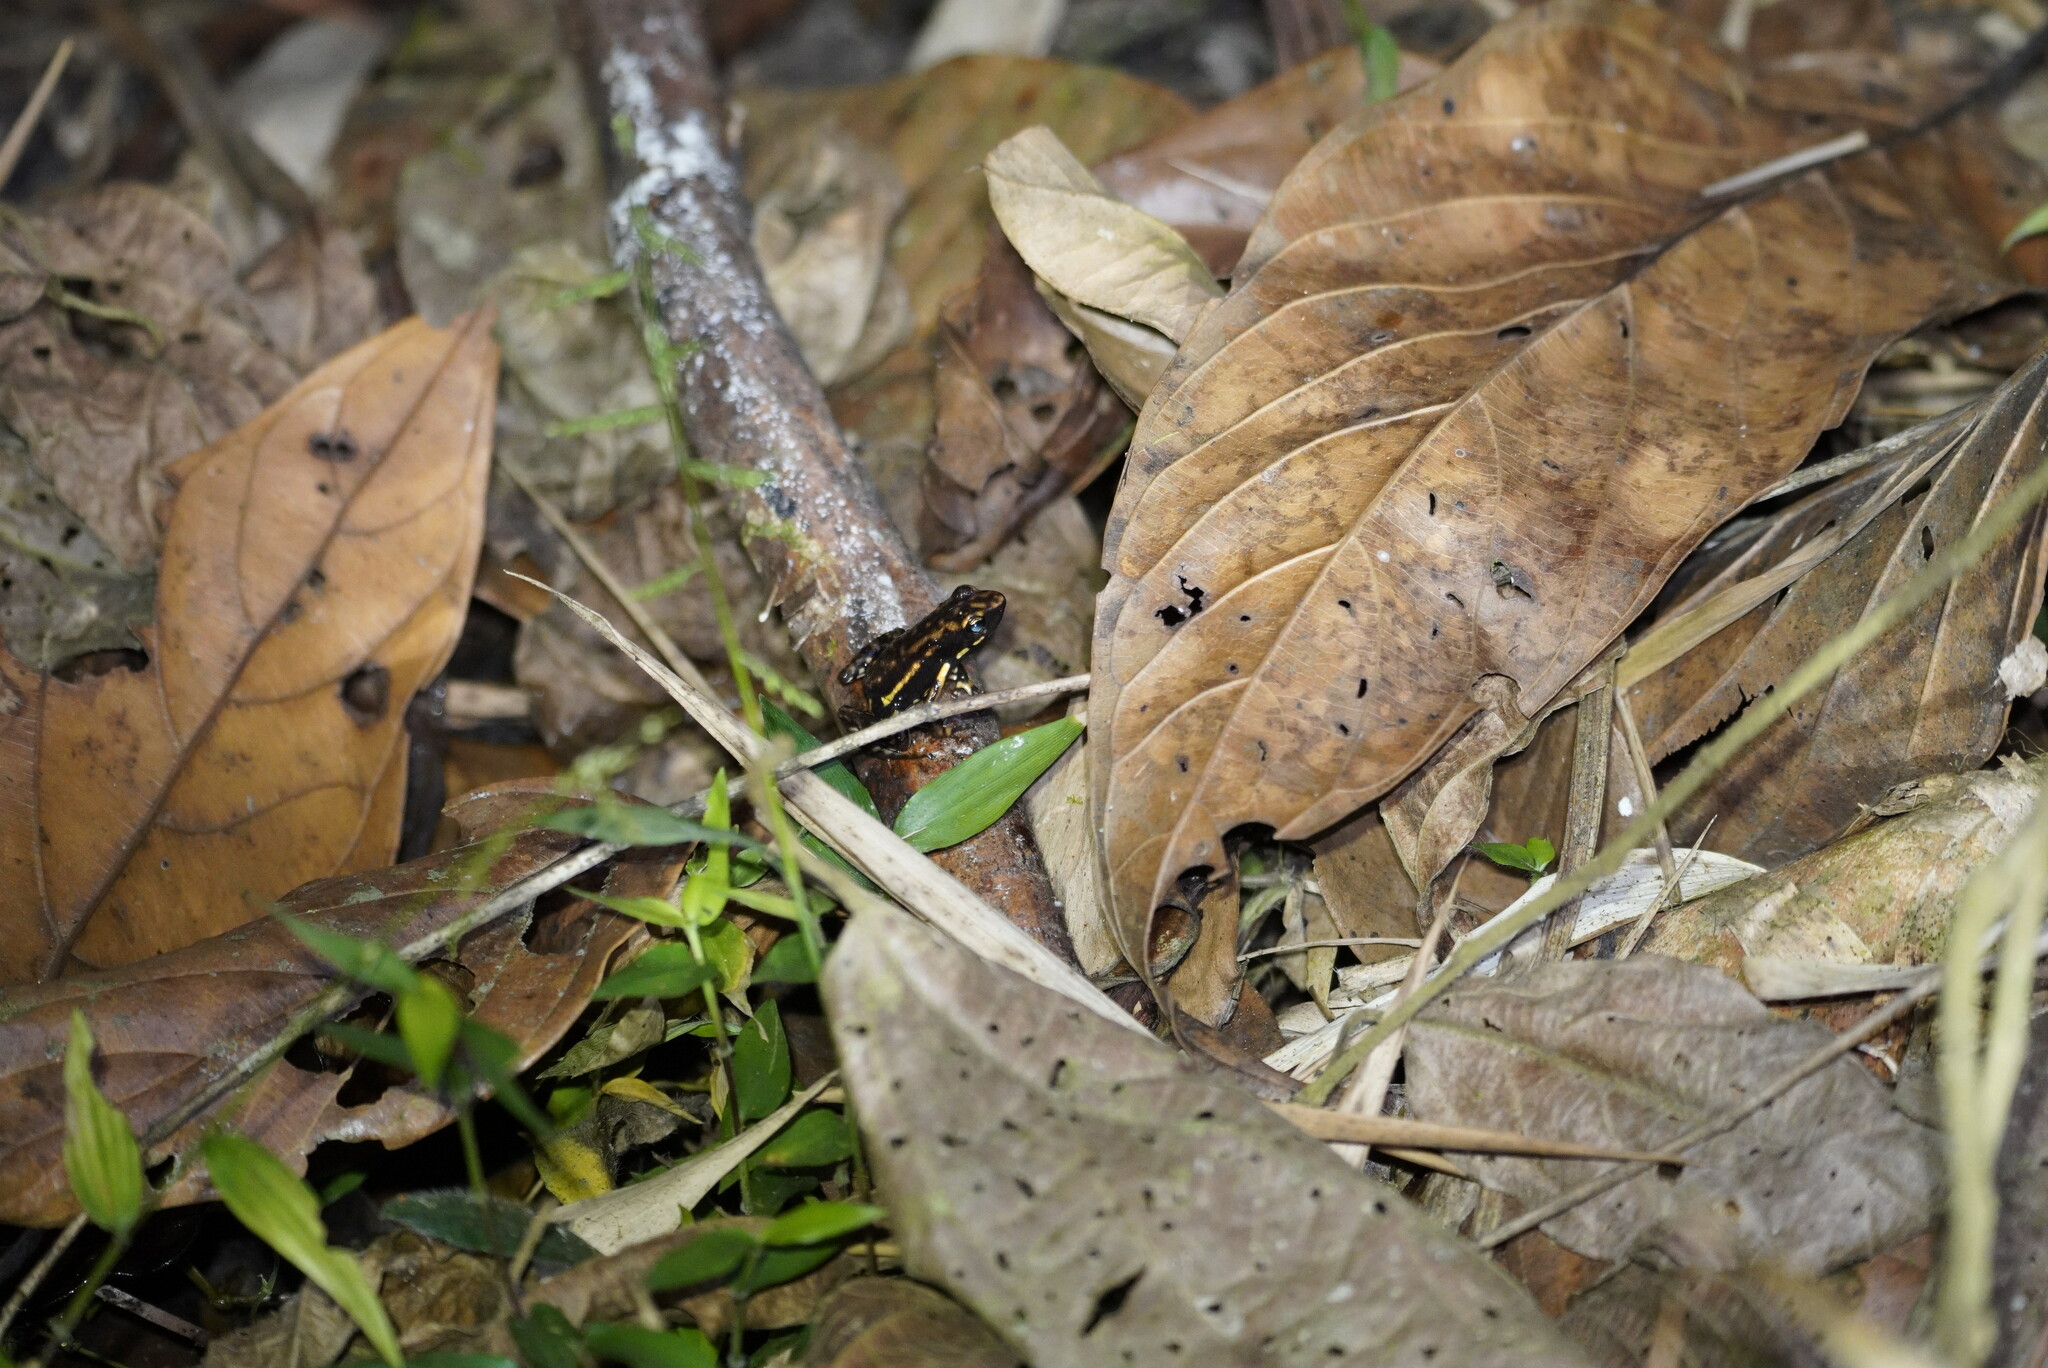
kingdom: Animalia
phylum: Chordata
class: Amphibia
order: Anura
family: Dendrobatidae
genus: Epipedobates
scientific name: Epipedobates darwinwallacei
